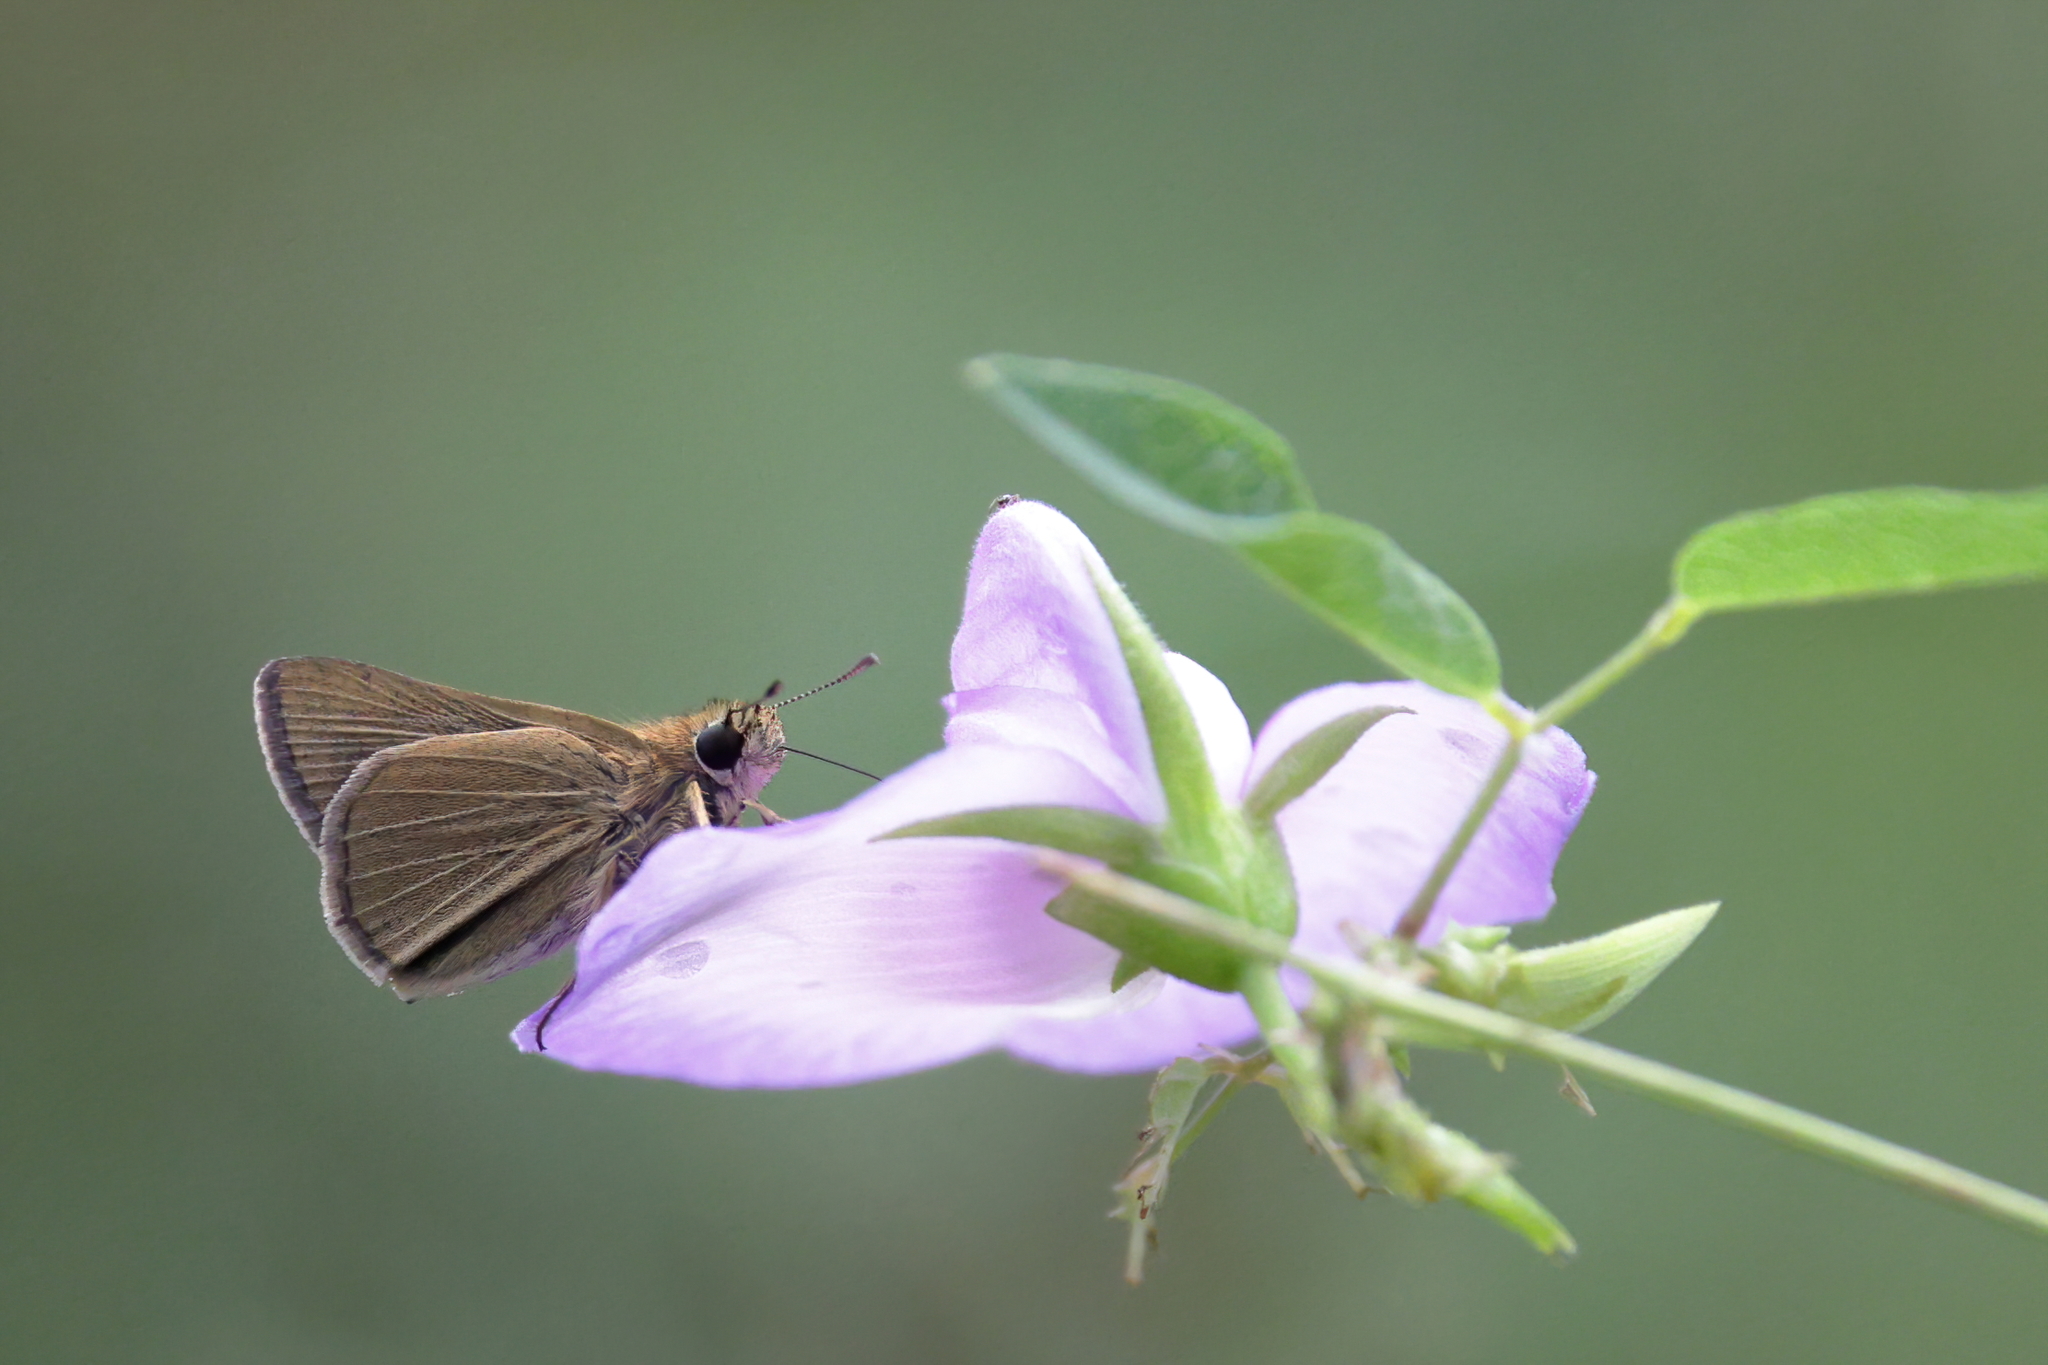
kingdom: Animalia
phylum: Arthropoda
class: Insecta
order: Lepidoptera
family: Hesperiidae
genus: Nastra
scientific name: Nastra lherminier
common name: Swarthy skipper
